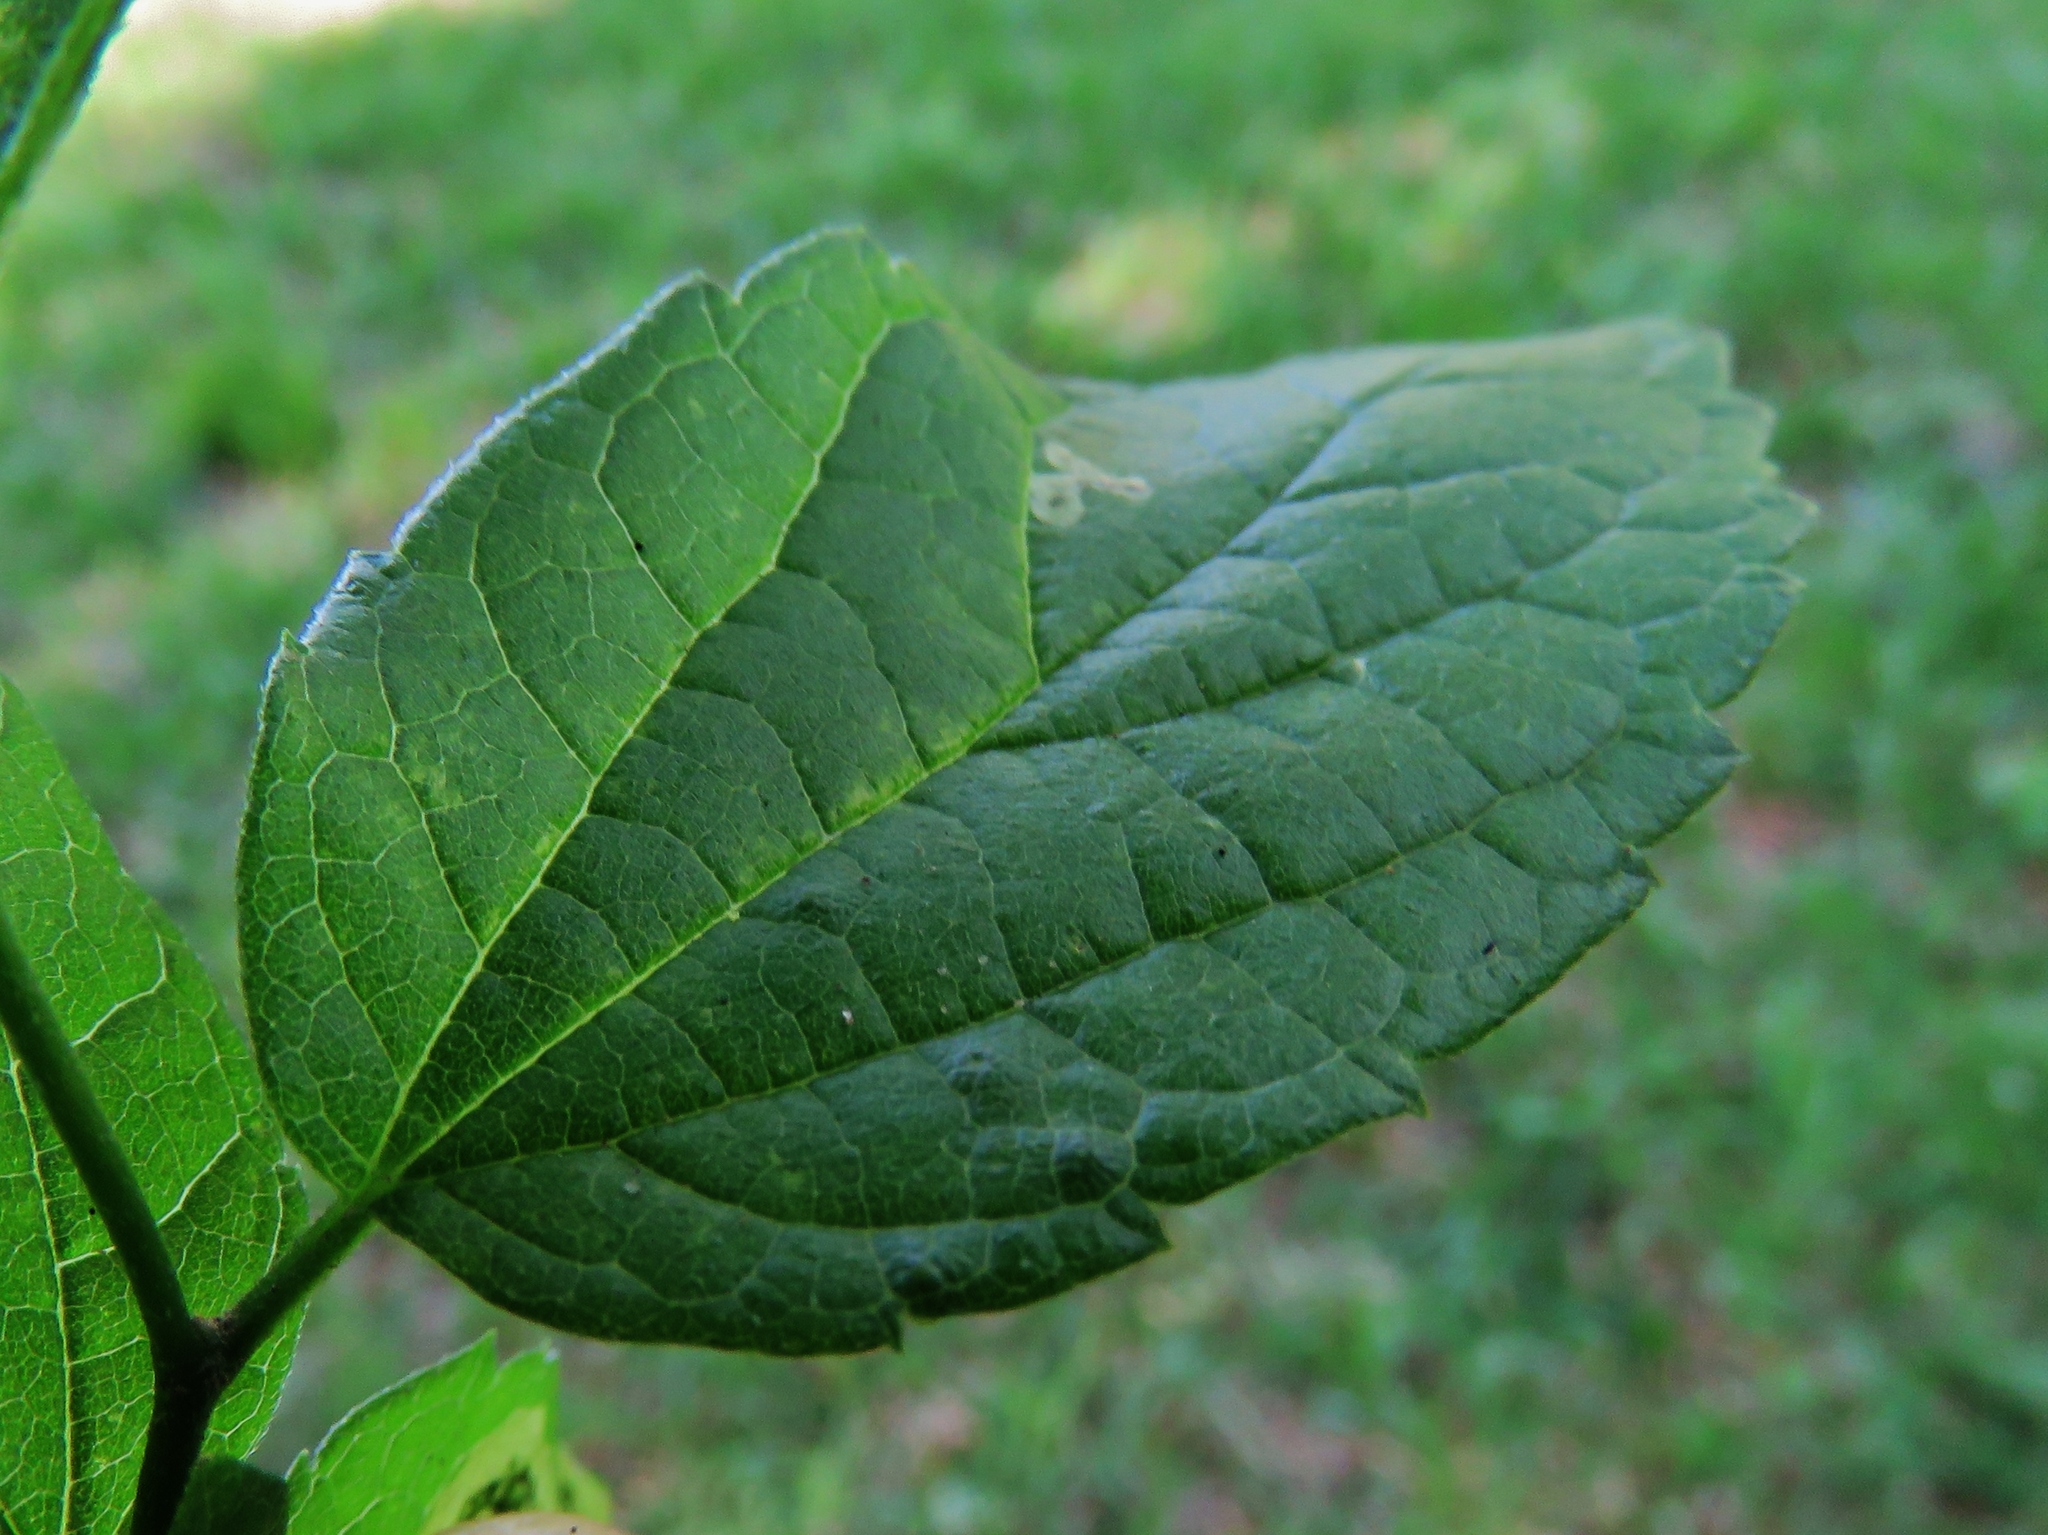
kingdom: Animalia
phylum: Arthropoda
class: Insecta
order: Diptera
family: Cecidomyiidae
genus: Celticecis
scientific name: Celticecis aciculata
